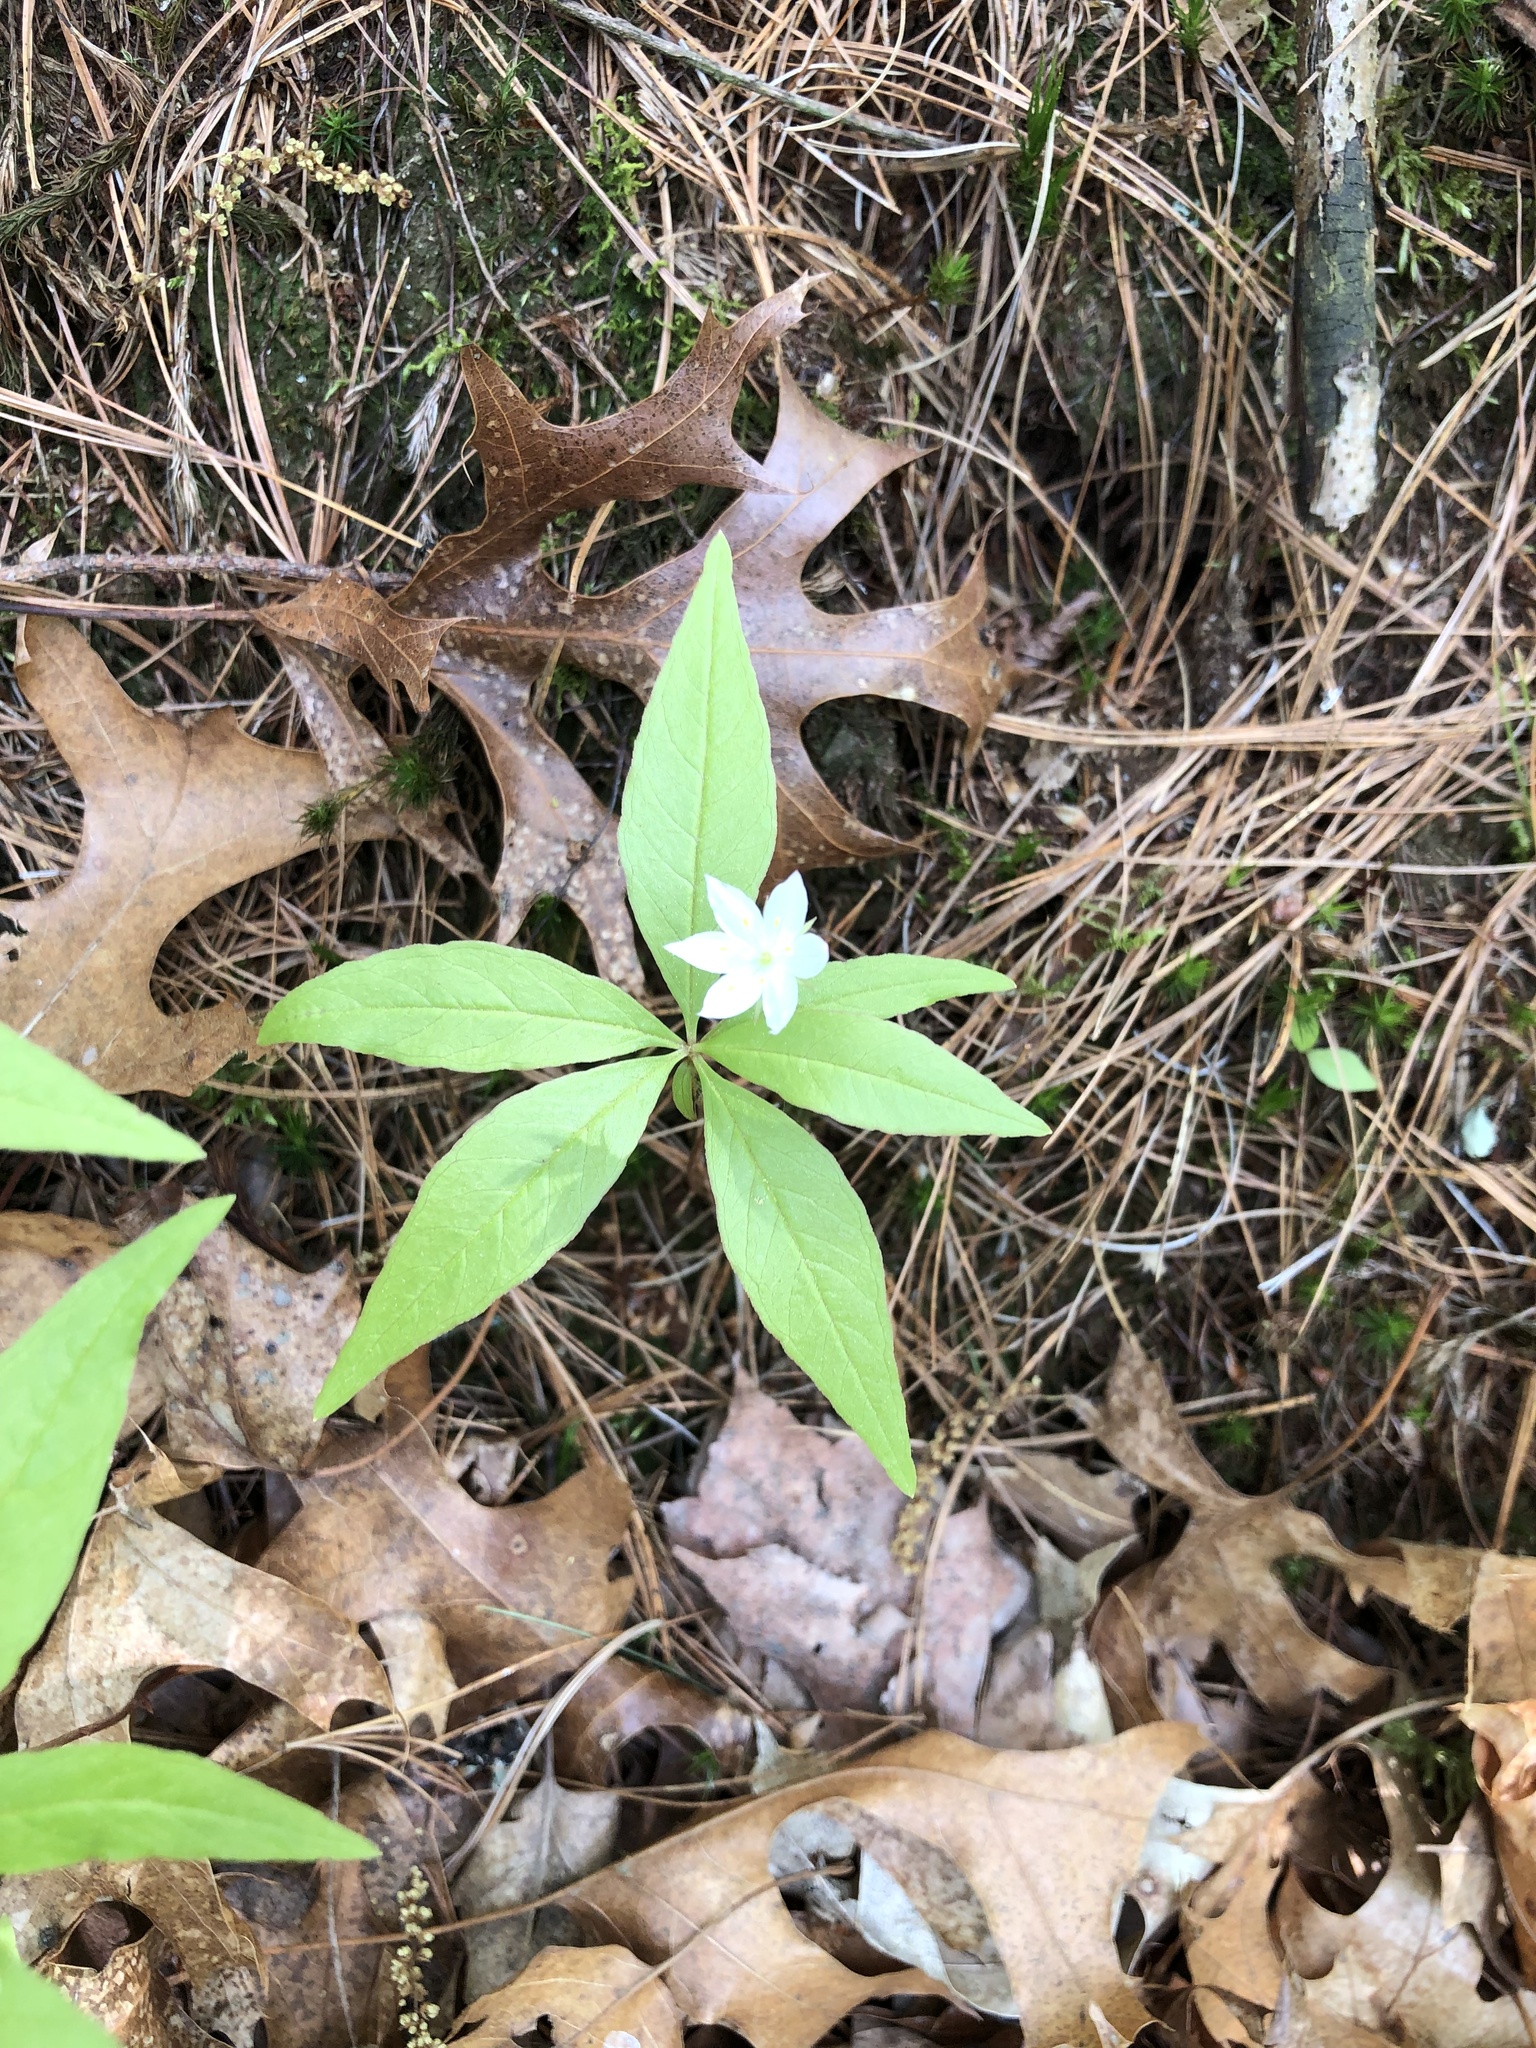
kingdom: Plantae
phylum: Tracheophyta
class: Magnoliopsida
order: Ericales
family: Primulaceae
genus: Lysimachia
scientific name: Lysimachia borealis
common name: American starflower
